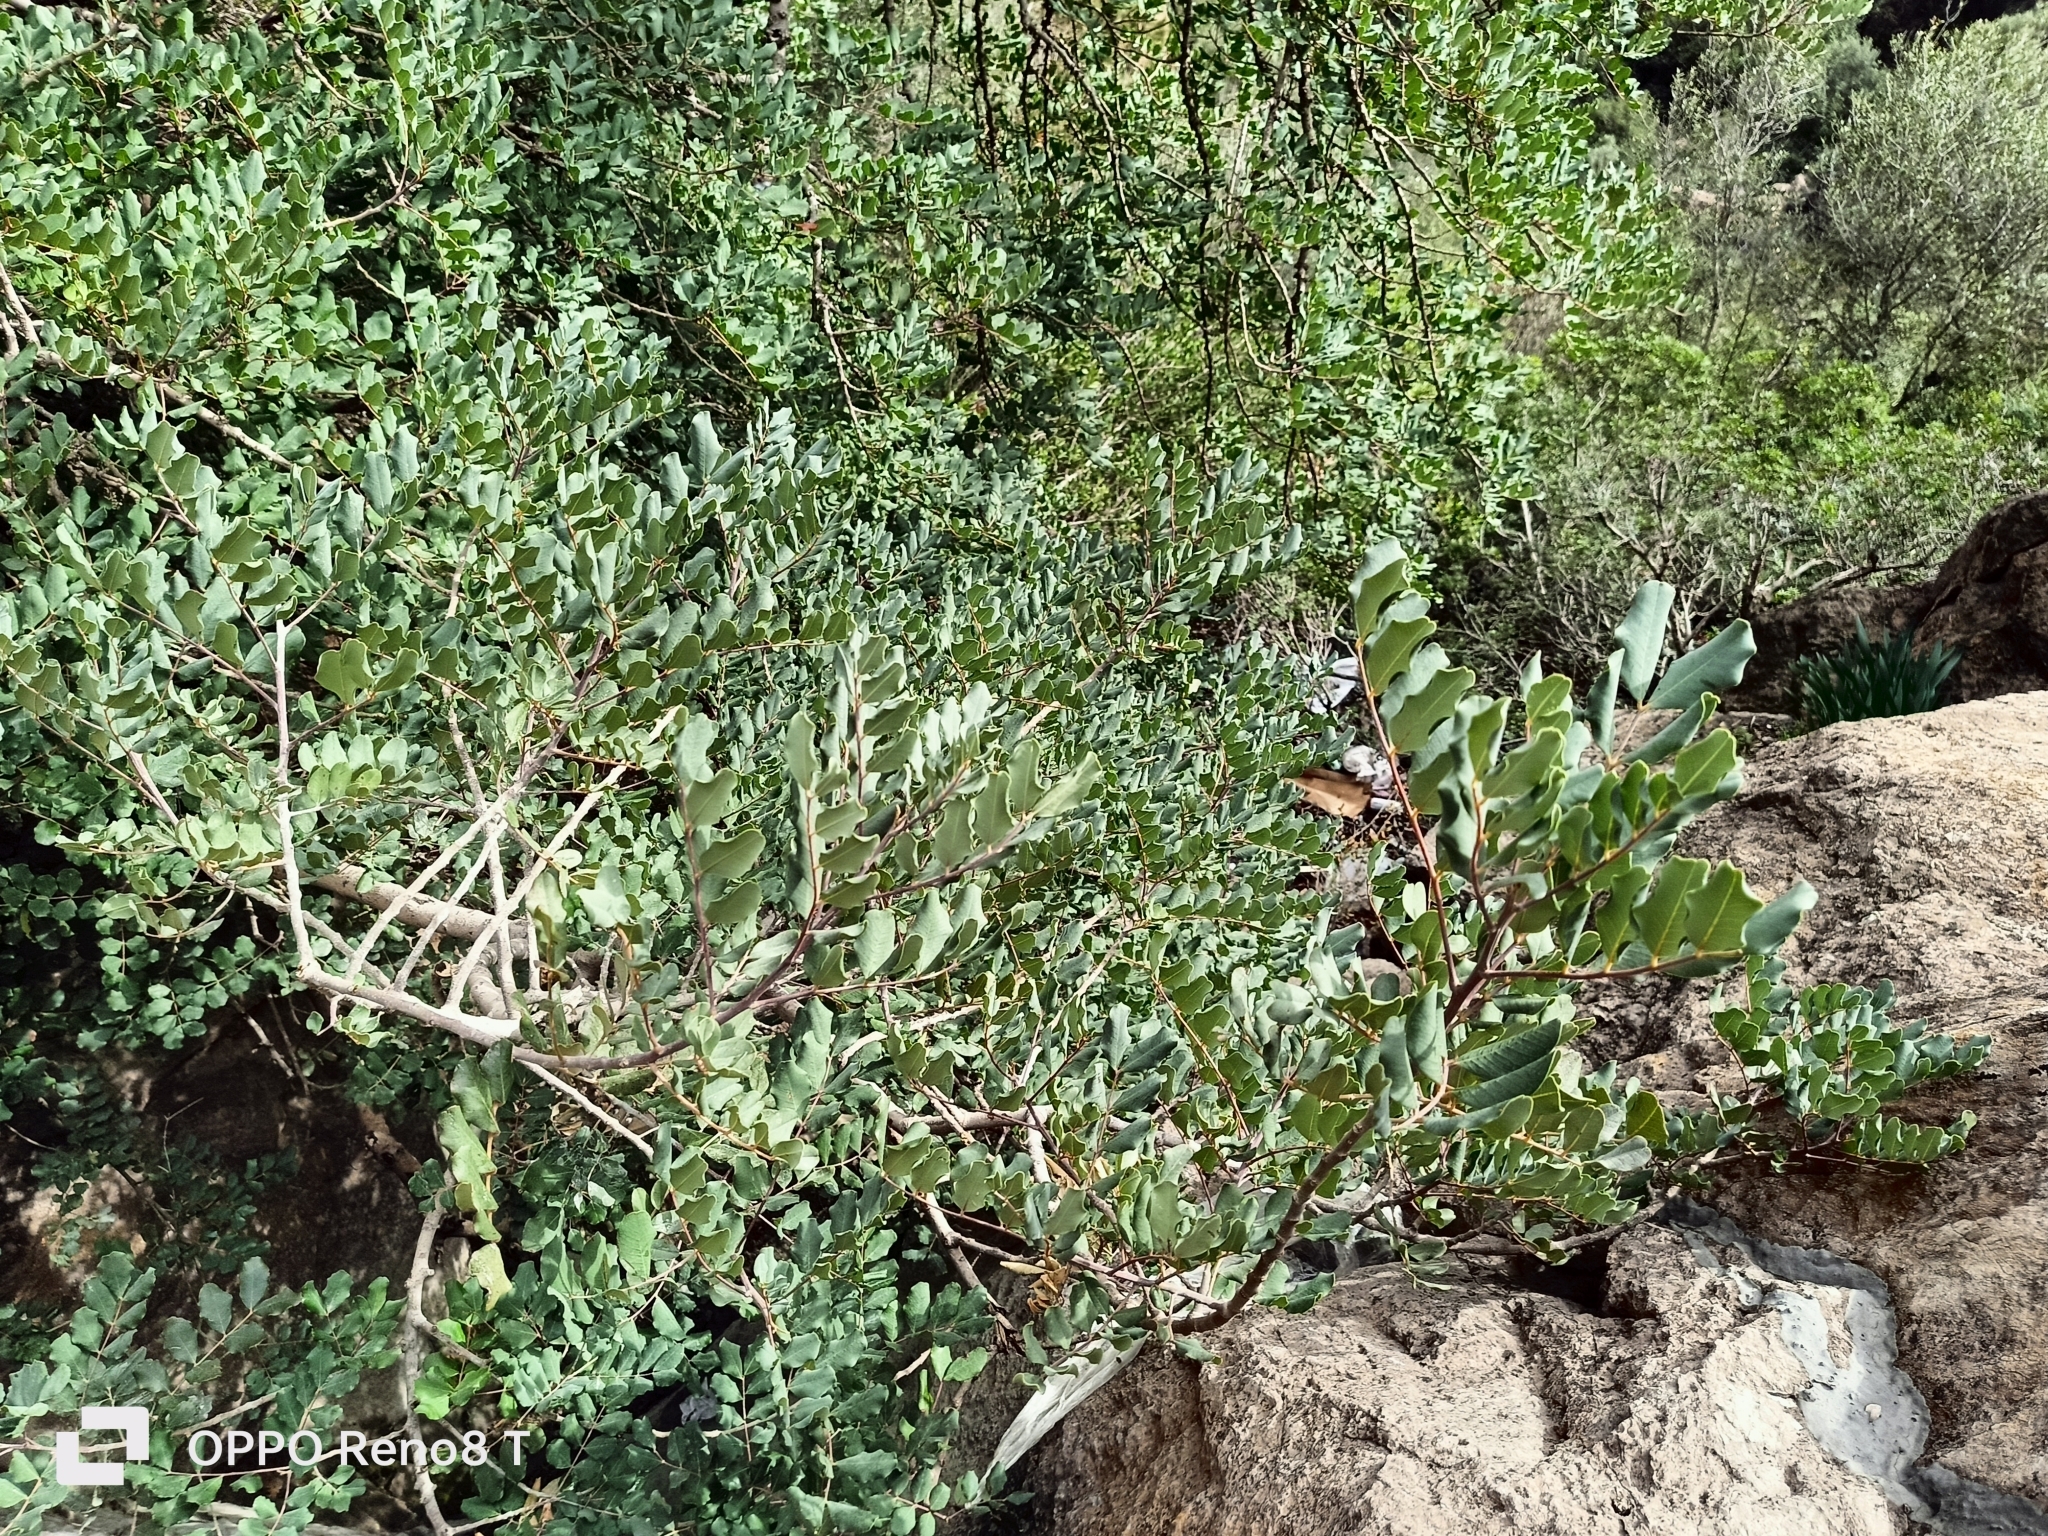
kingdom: Plantae
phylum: Tracheophyta
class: Magnoliopsida
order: Fabales
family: Fabaceae
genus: Ceratonia
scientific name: Ceratonia siliqua
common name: Carob
